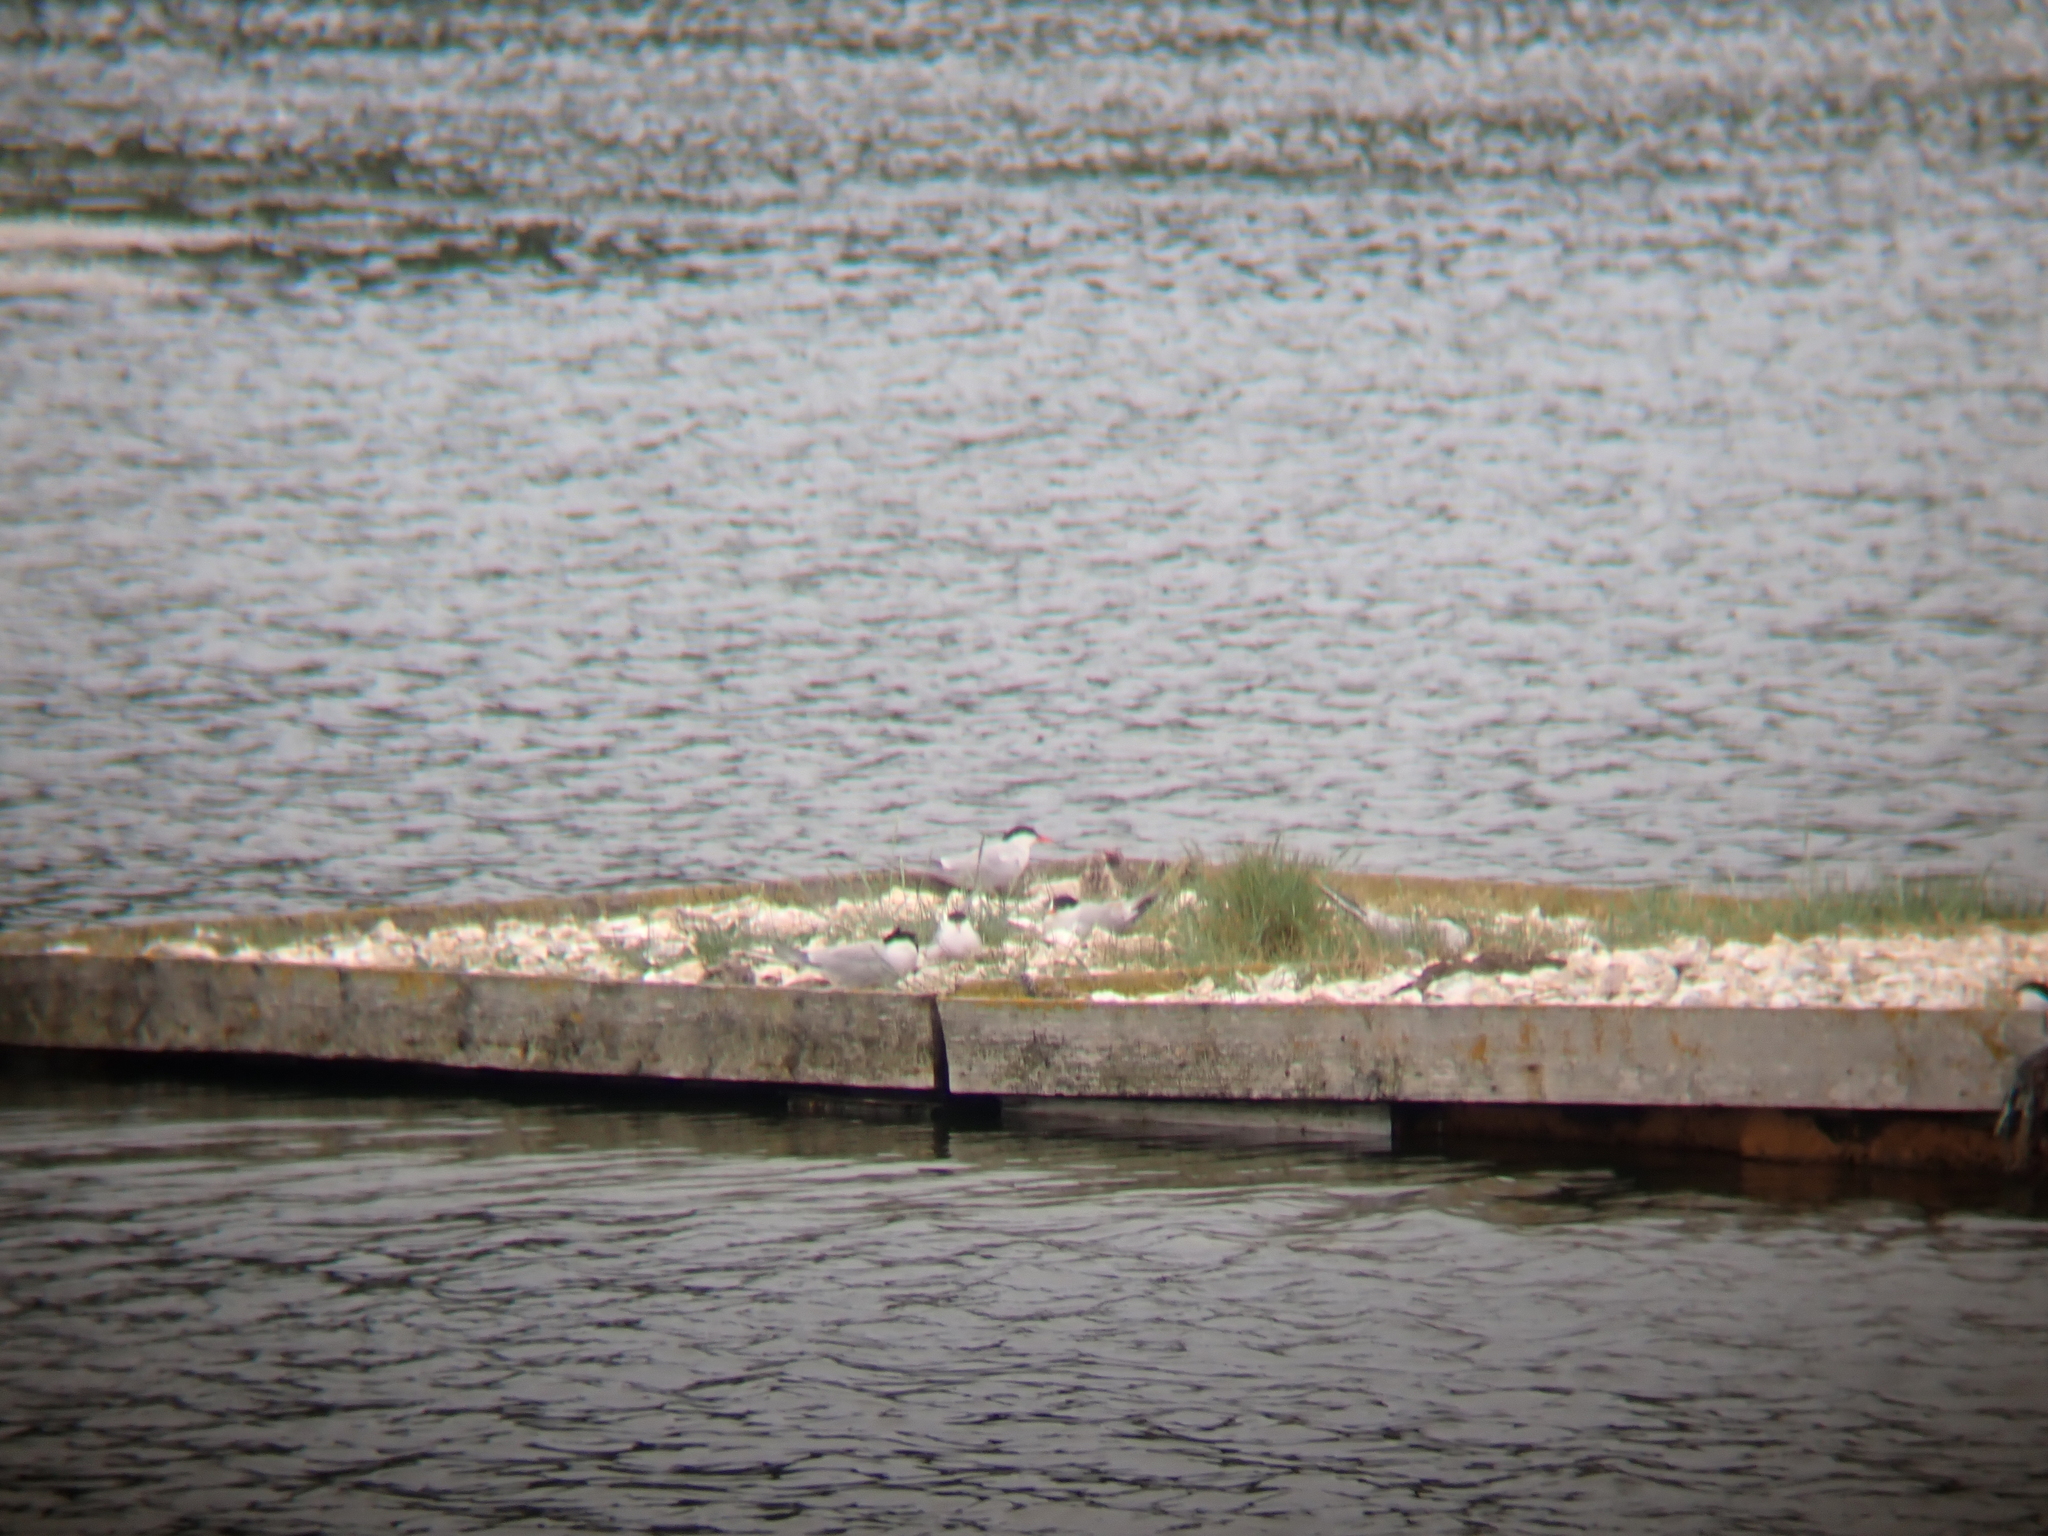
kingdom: Animalia
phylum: Chordata
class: Aves
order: Charadriiformes
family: Laridae
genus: Sterna
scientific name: Sterna hirundo
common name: Common tern
